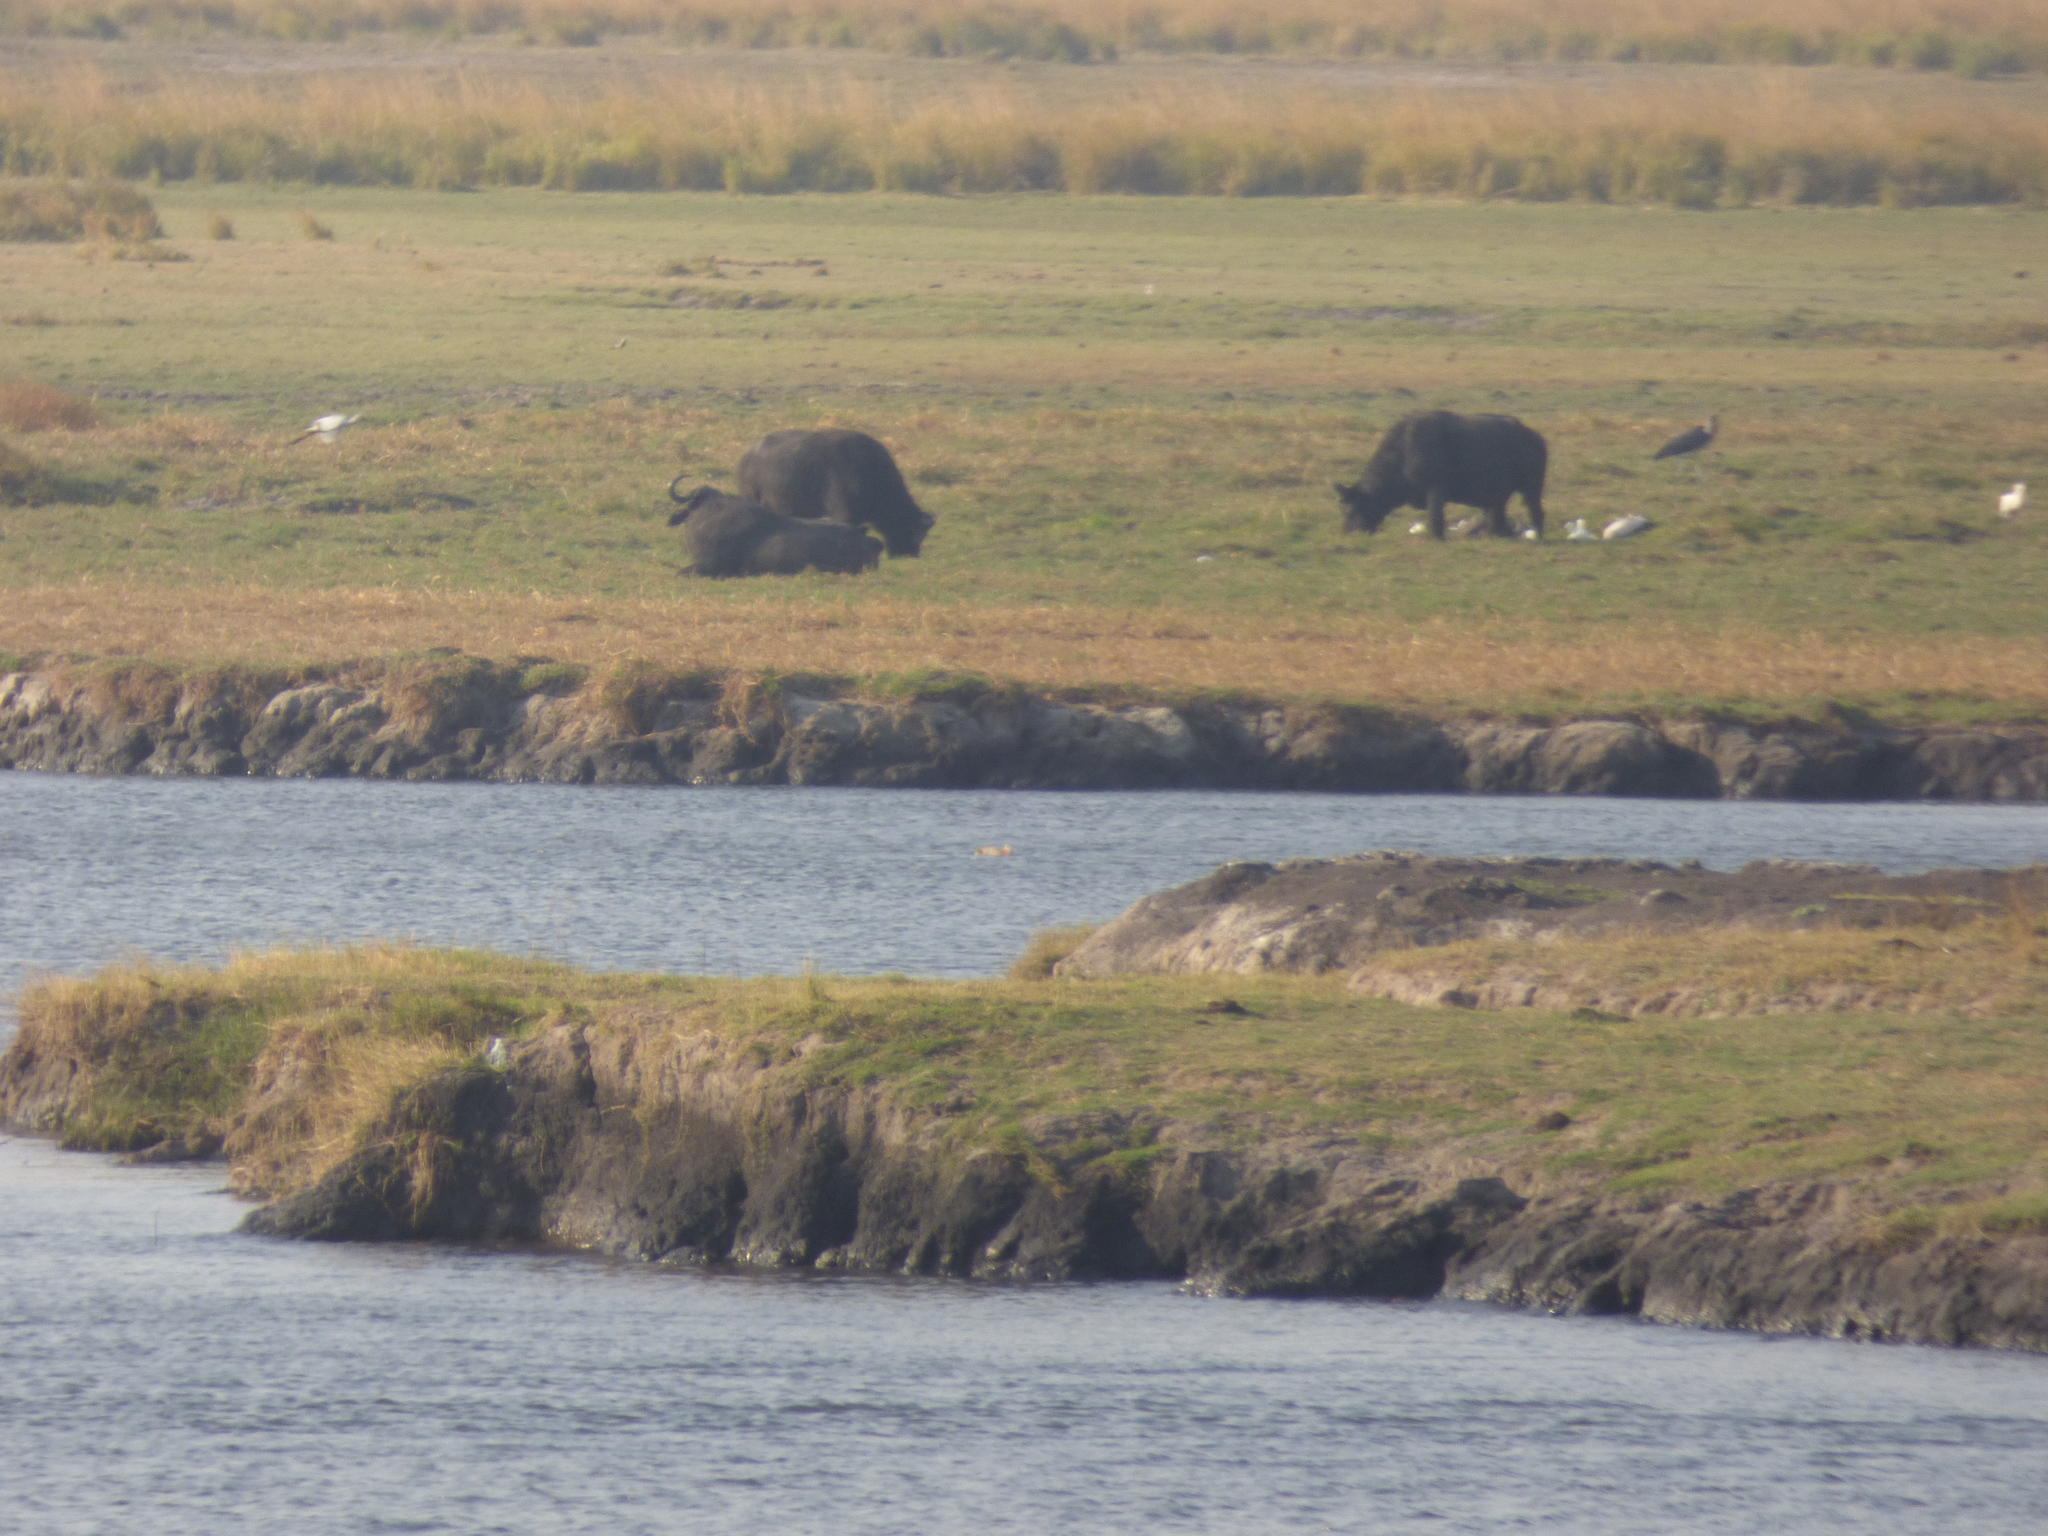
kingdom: Animalia
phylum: Chordata
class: Mammalia
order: Artiodactyla
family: Bovidae
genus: Syncerus
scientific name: Syncerus caffer
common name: African buffalo
